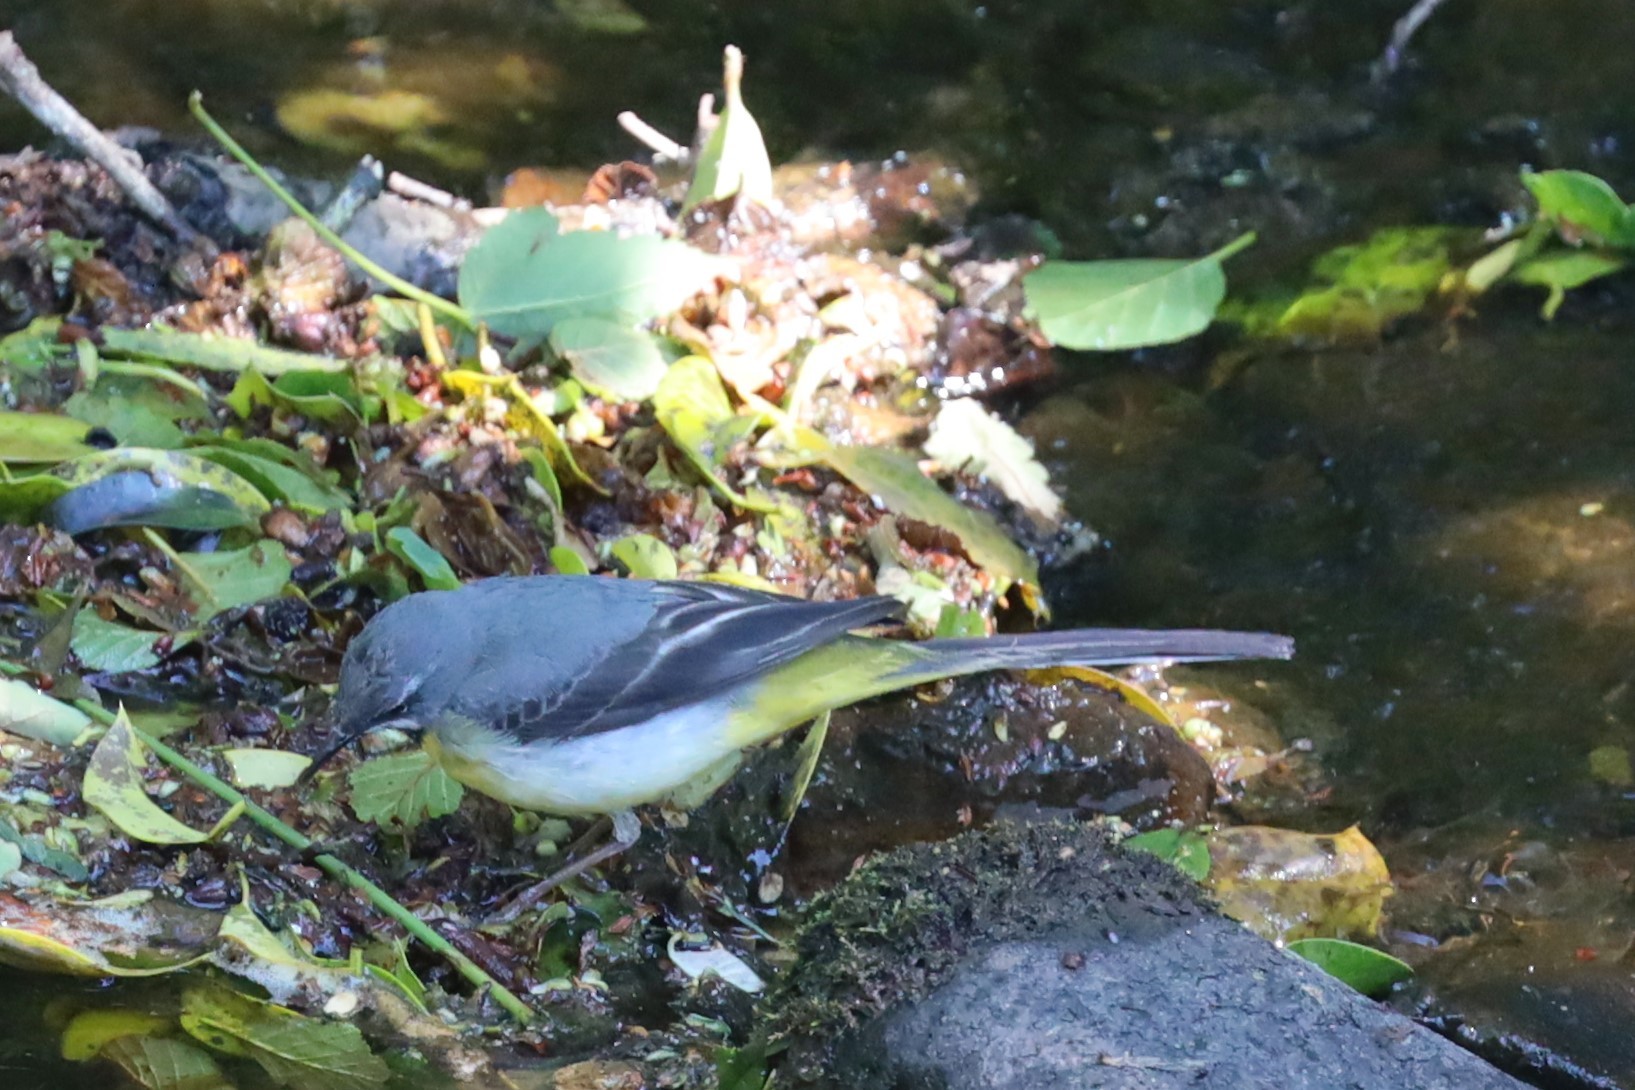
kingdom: Animalia
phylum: Chordata
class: Aves
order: Passeriformes
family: Motacillidae
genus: Motacilla
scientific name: Motacilla cinerea
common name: Grey wagtail
